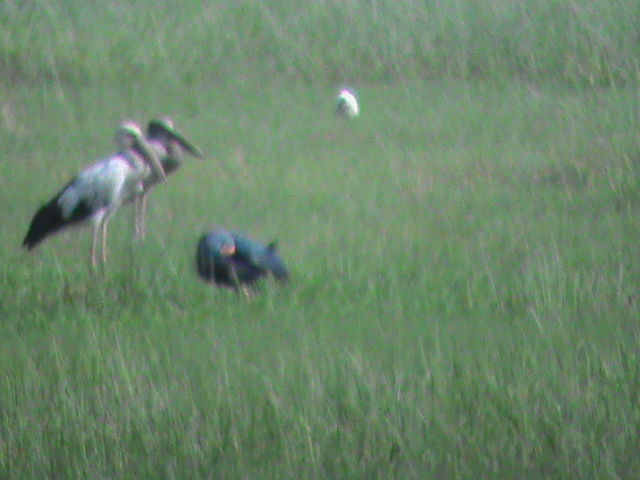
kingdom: Animalia
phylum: Chordata
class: Aves
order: Gruiformes
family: Rallidae
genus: Porphyrio
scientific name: Porphyrio porphyrio
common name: Purple swamphen
